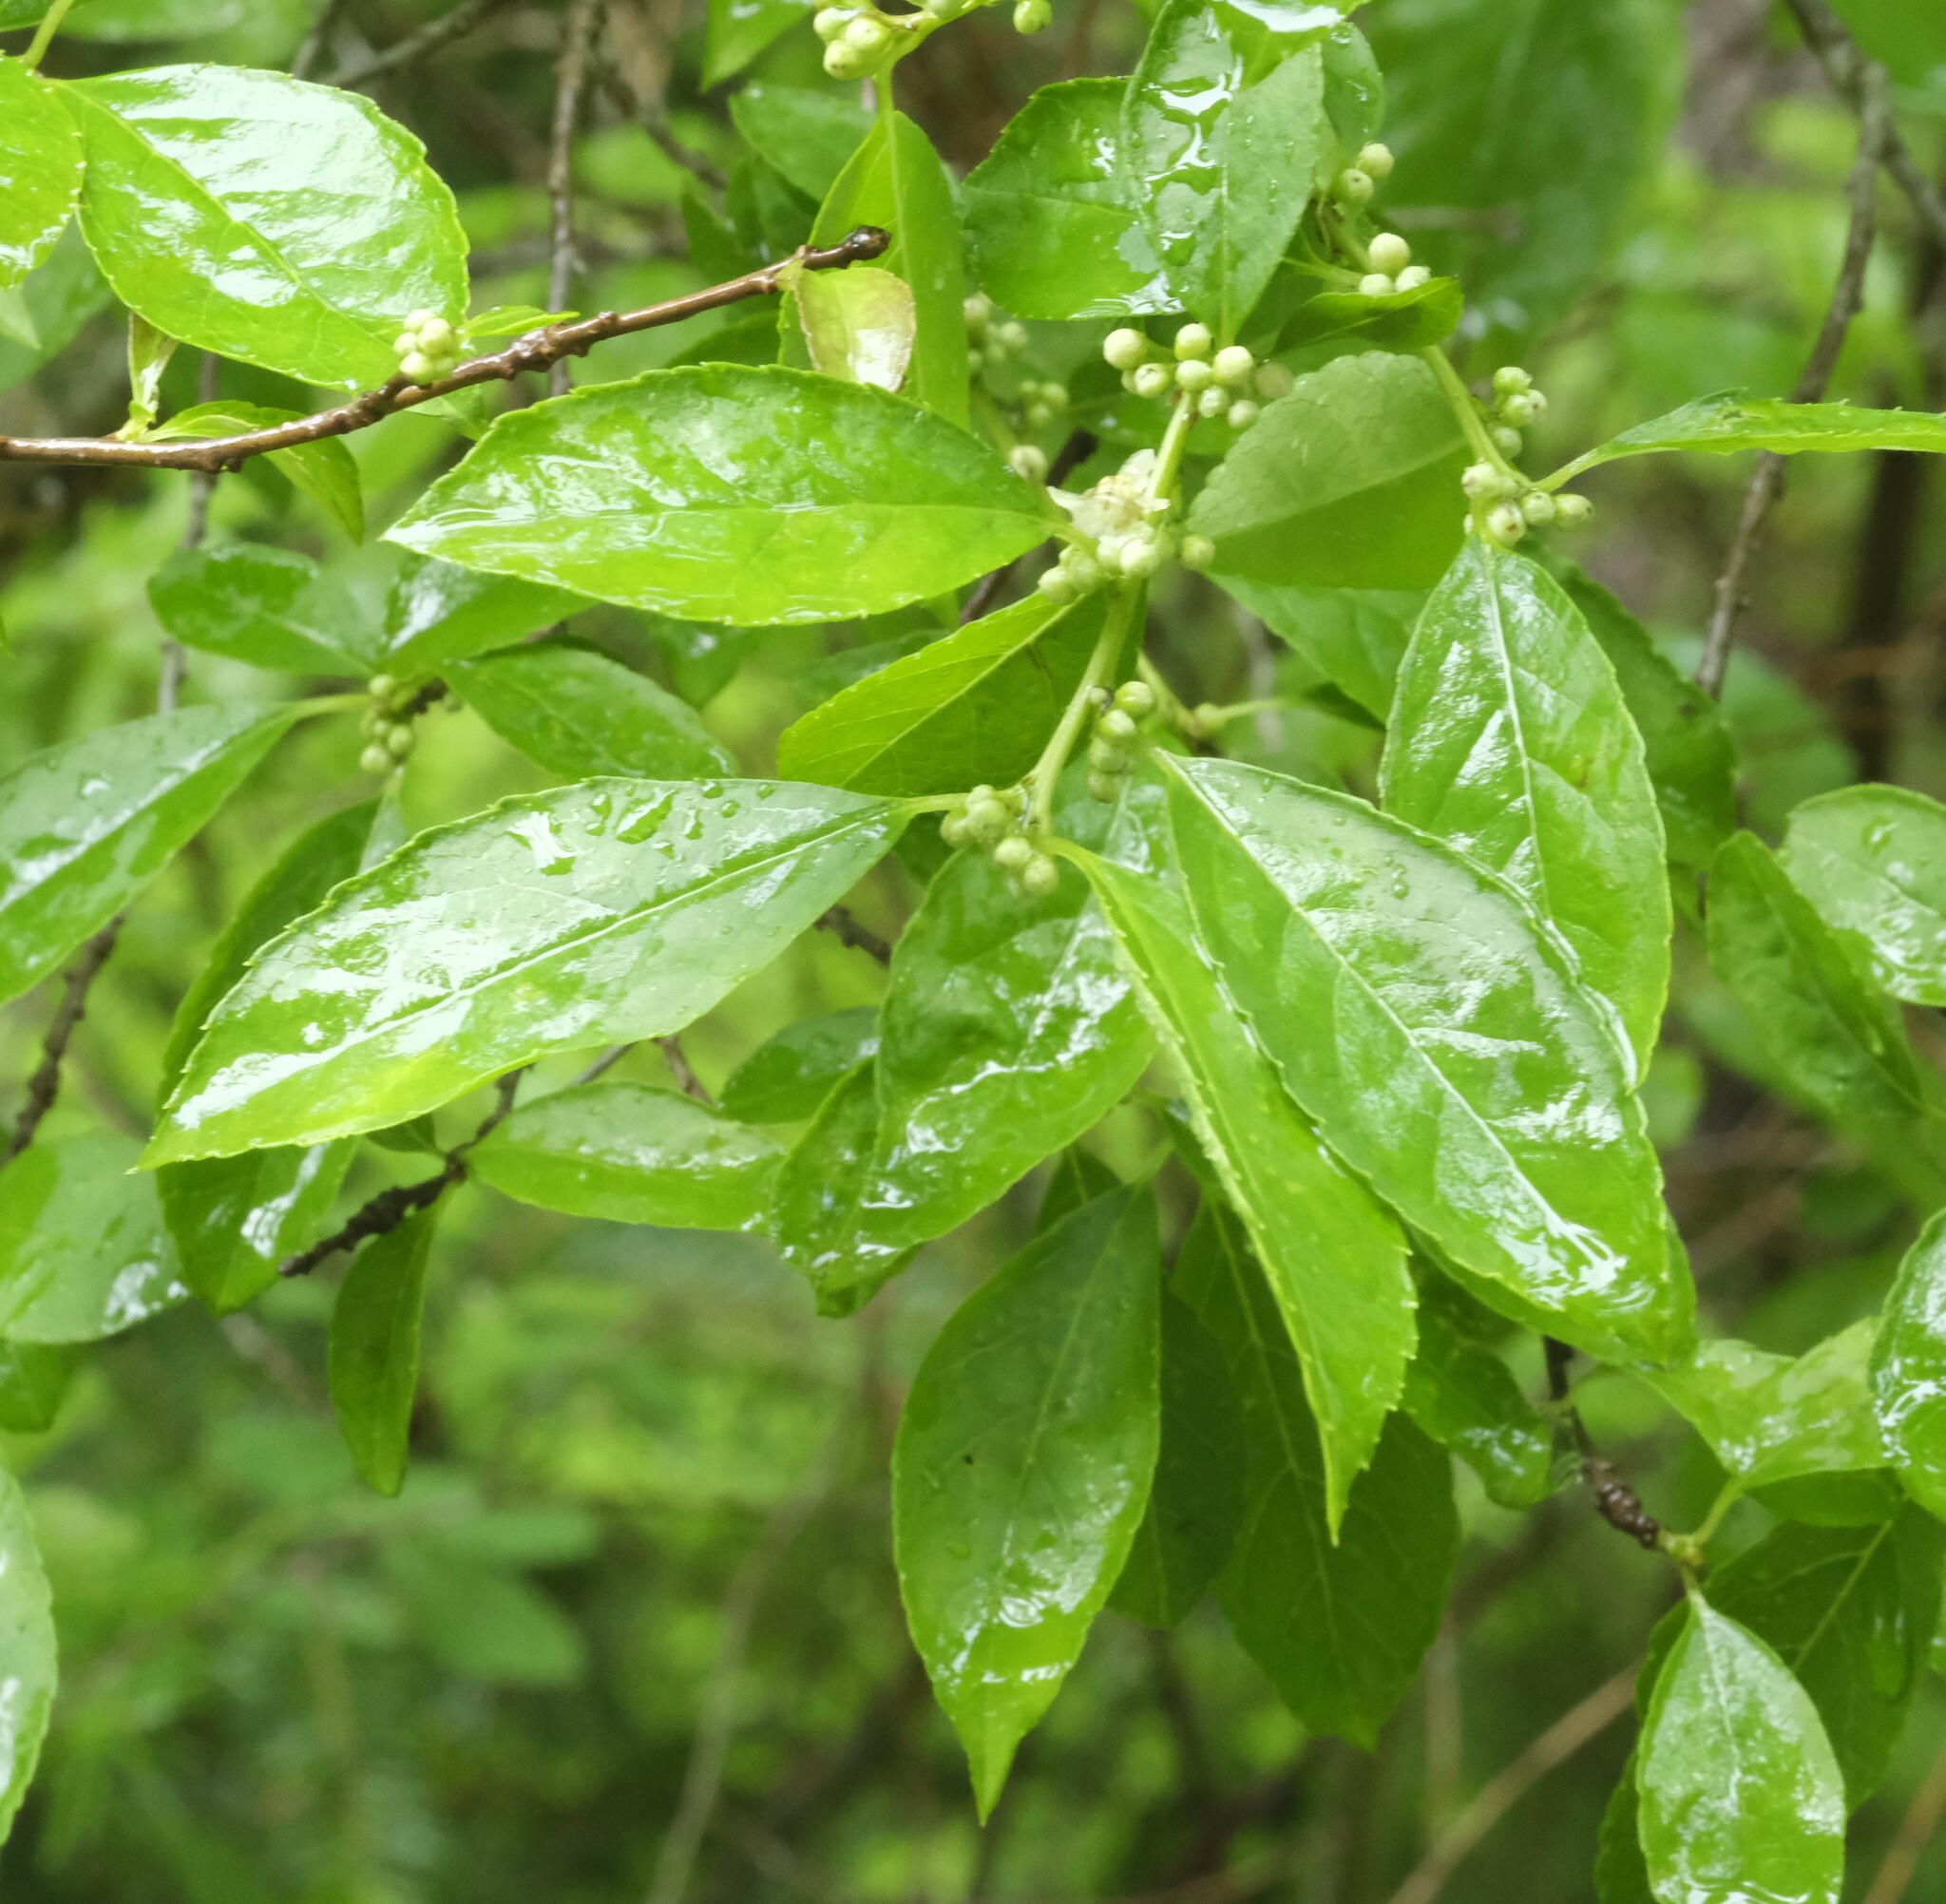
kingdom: Plantae
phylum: Tracheophyta
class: Magnoliopsida
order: Aquifoliales
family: Aquifoliaceae
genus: Ilex
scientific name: Ilex verticillata
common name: Virginia winterberry
